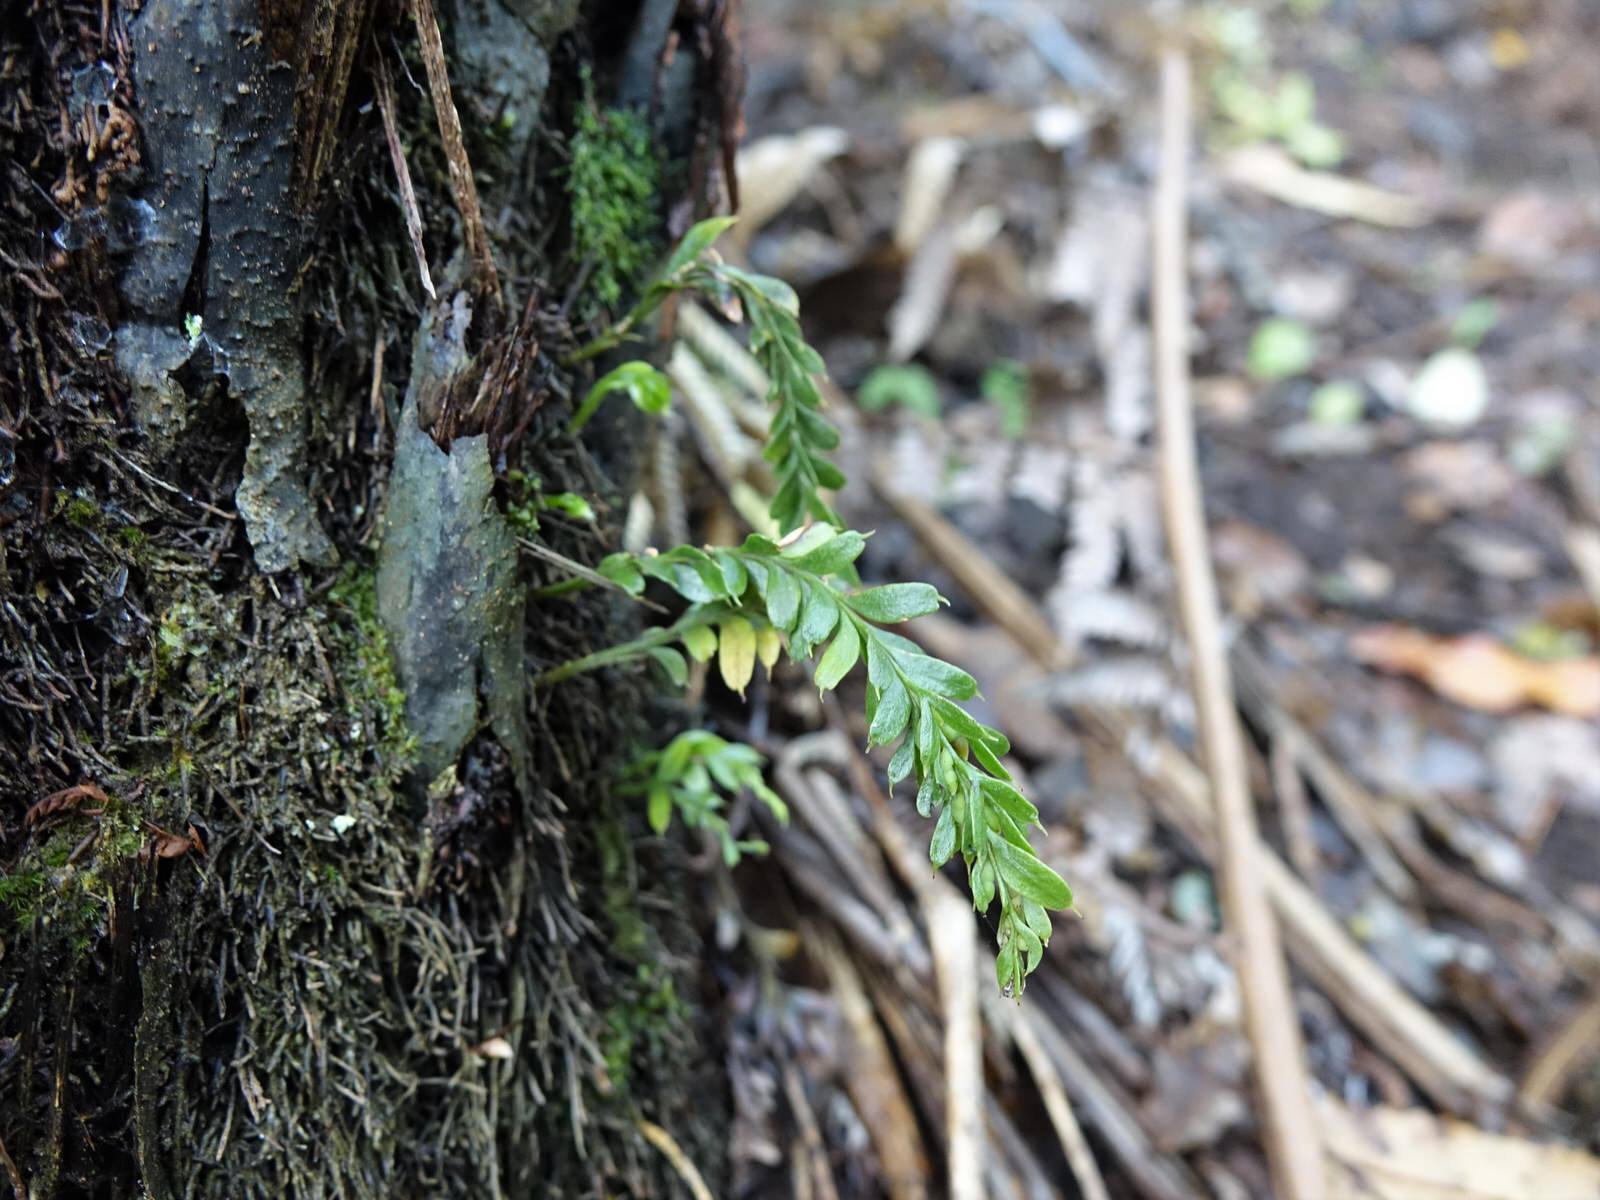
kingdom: Plantae
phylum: Tracheophyta
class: Polypodiopsida
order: Psilotales
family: Psilotaceae
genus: Tmesipteris
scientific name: Tmesipteris tannensis
